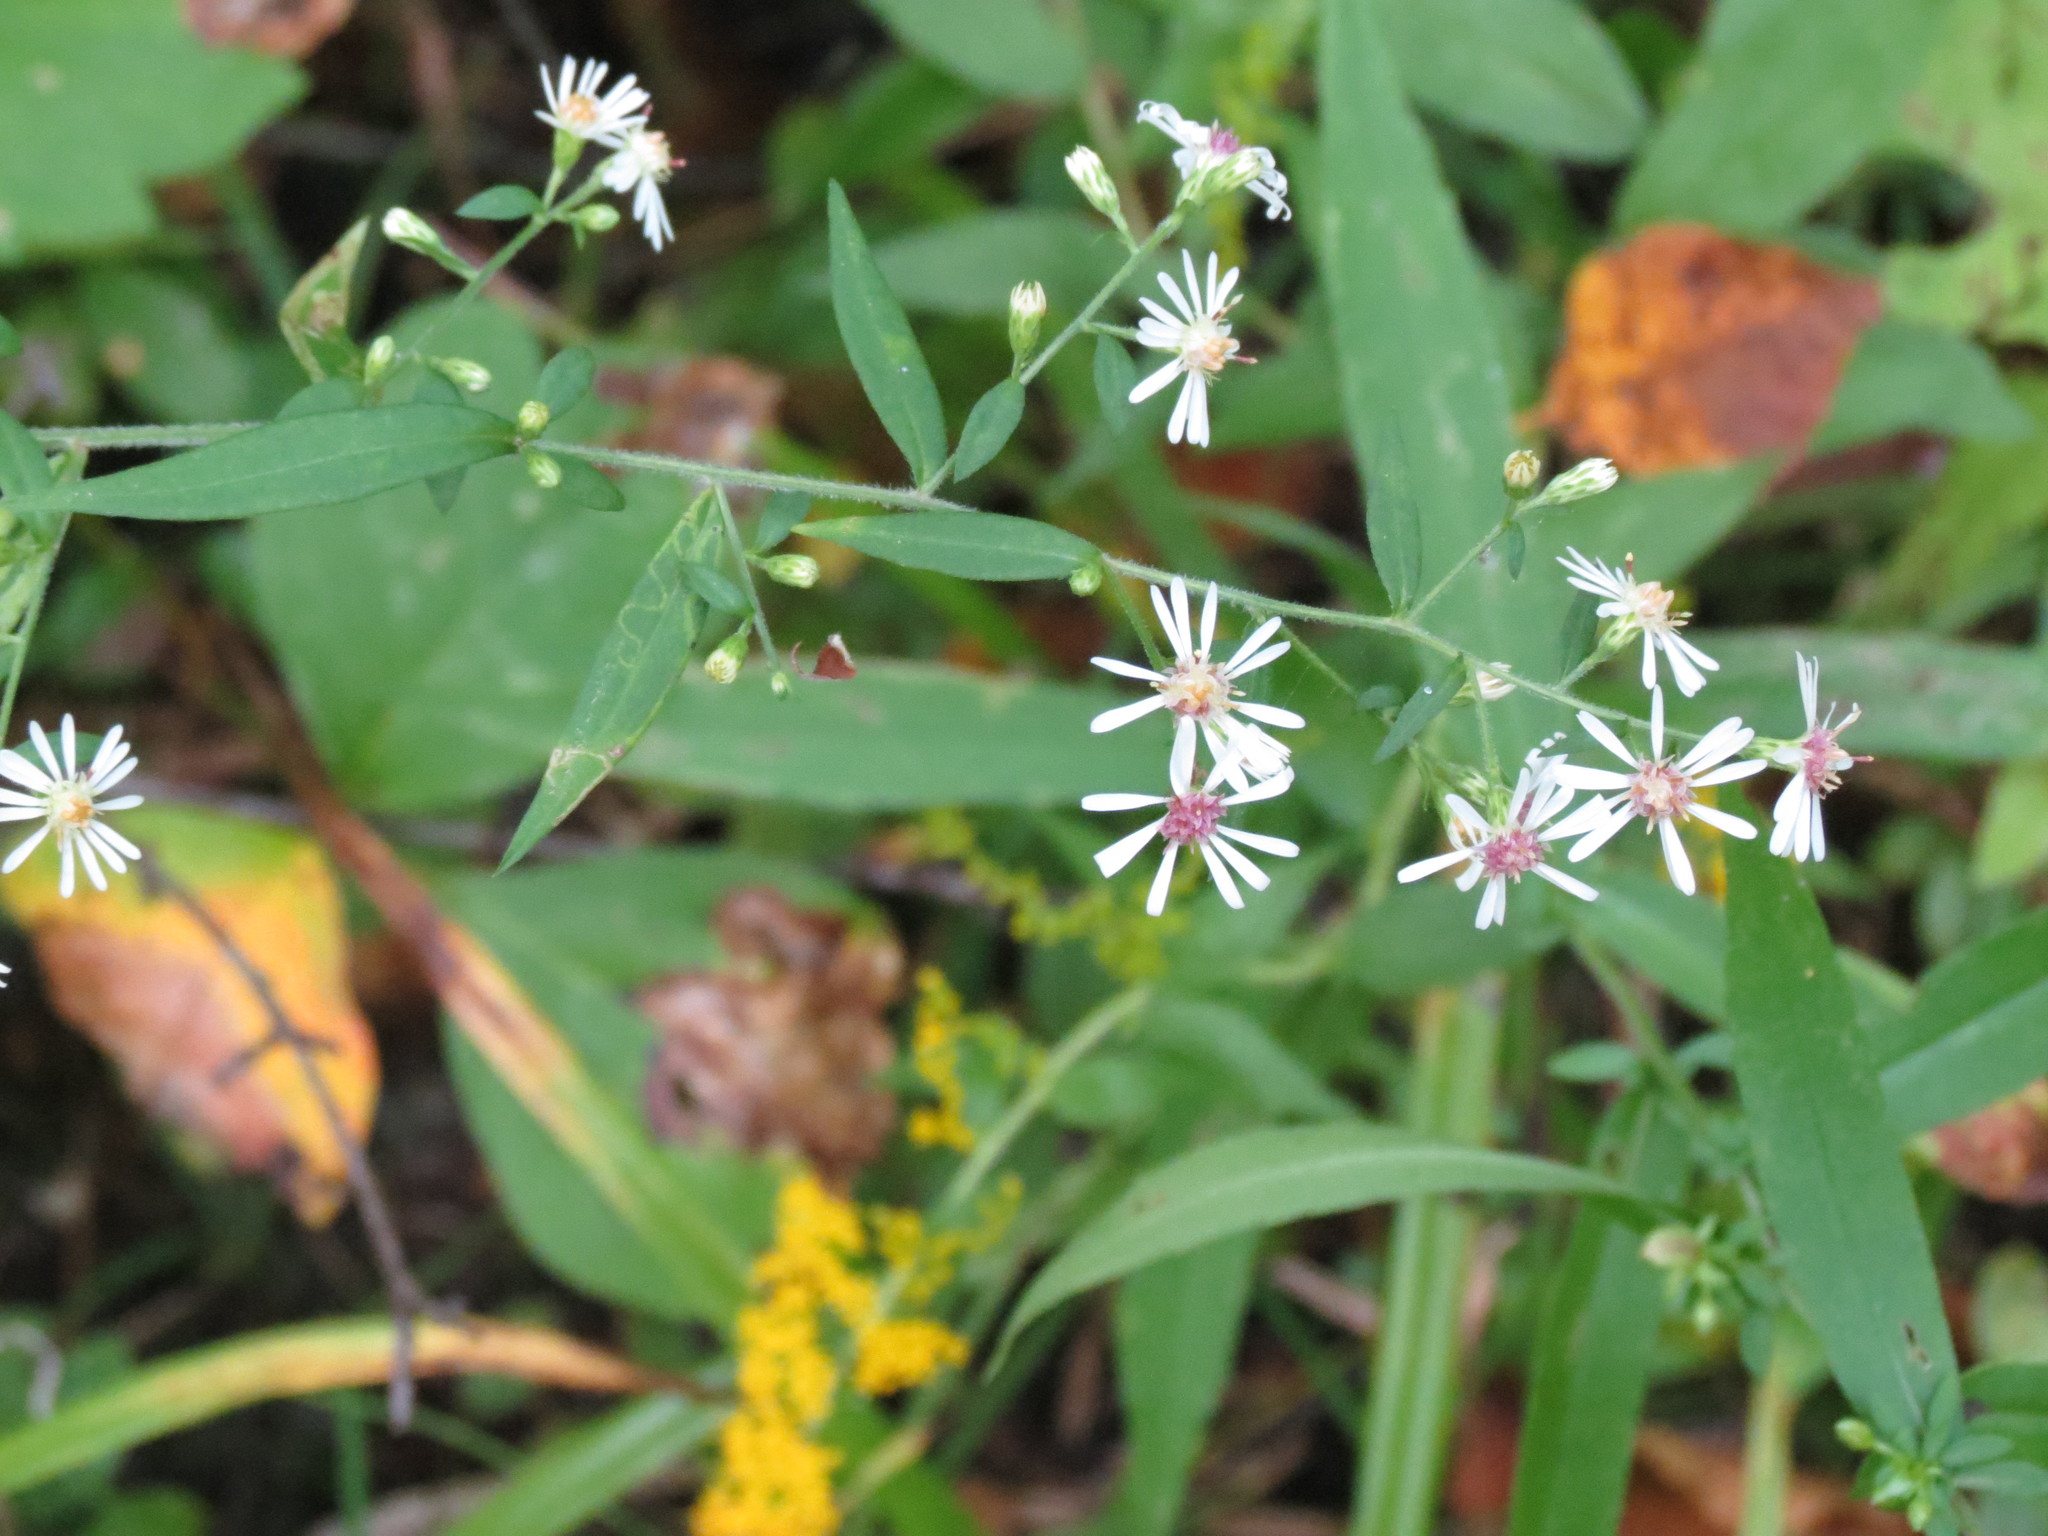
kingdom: Plantae
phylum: Tracheophyta
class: Magnoliopsida
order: Asterales
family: Asteraceae
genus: Symphyotrichum
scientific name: Symphyotrichum lateriflorum
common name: Calico aster
